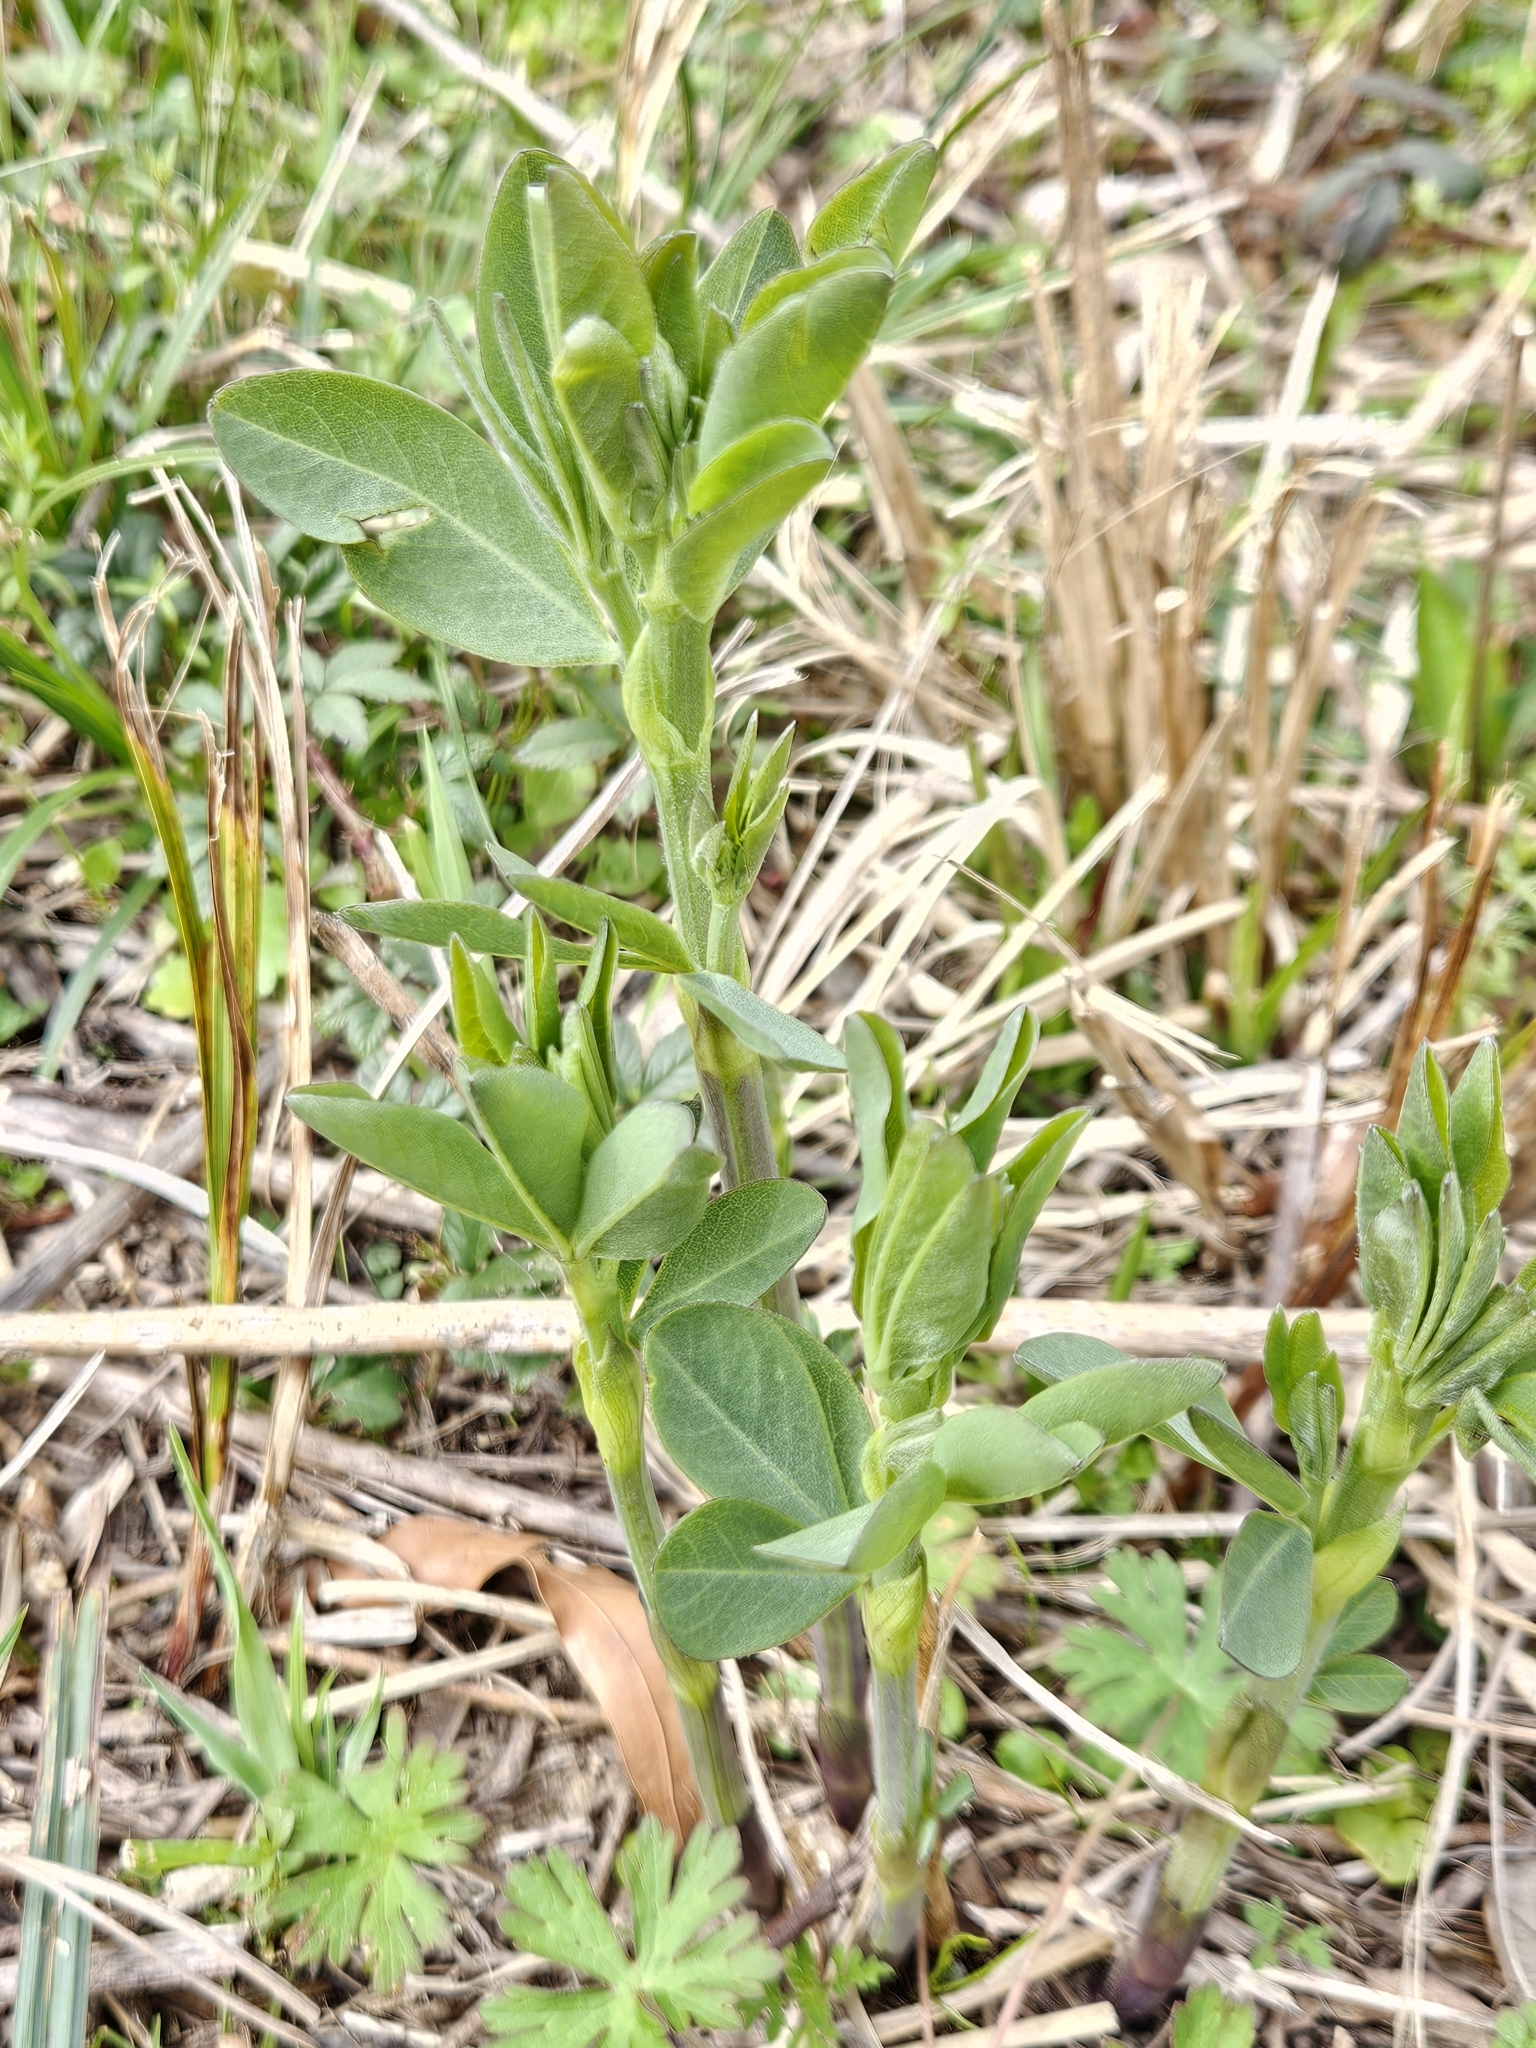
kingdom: Plantae
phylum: Tracheophyta
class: Magnoliopsida
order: Fabales
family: Fabaceae
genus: Baptisia
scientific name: Baptisia bracteata
